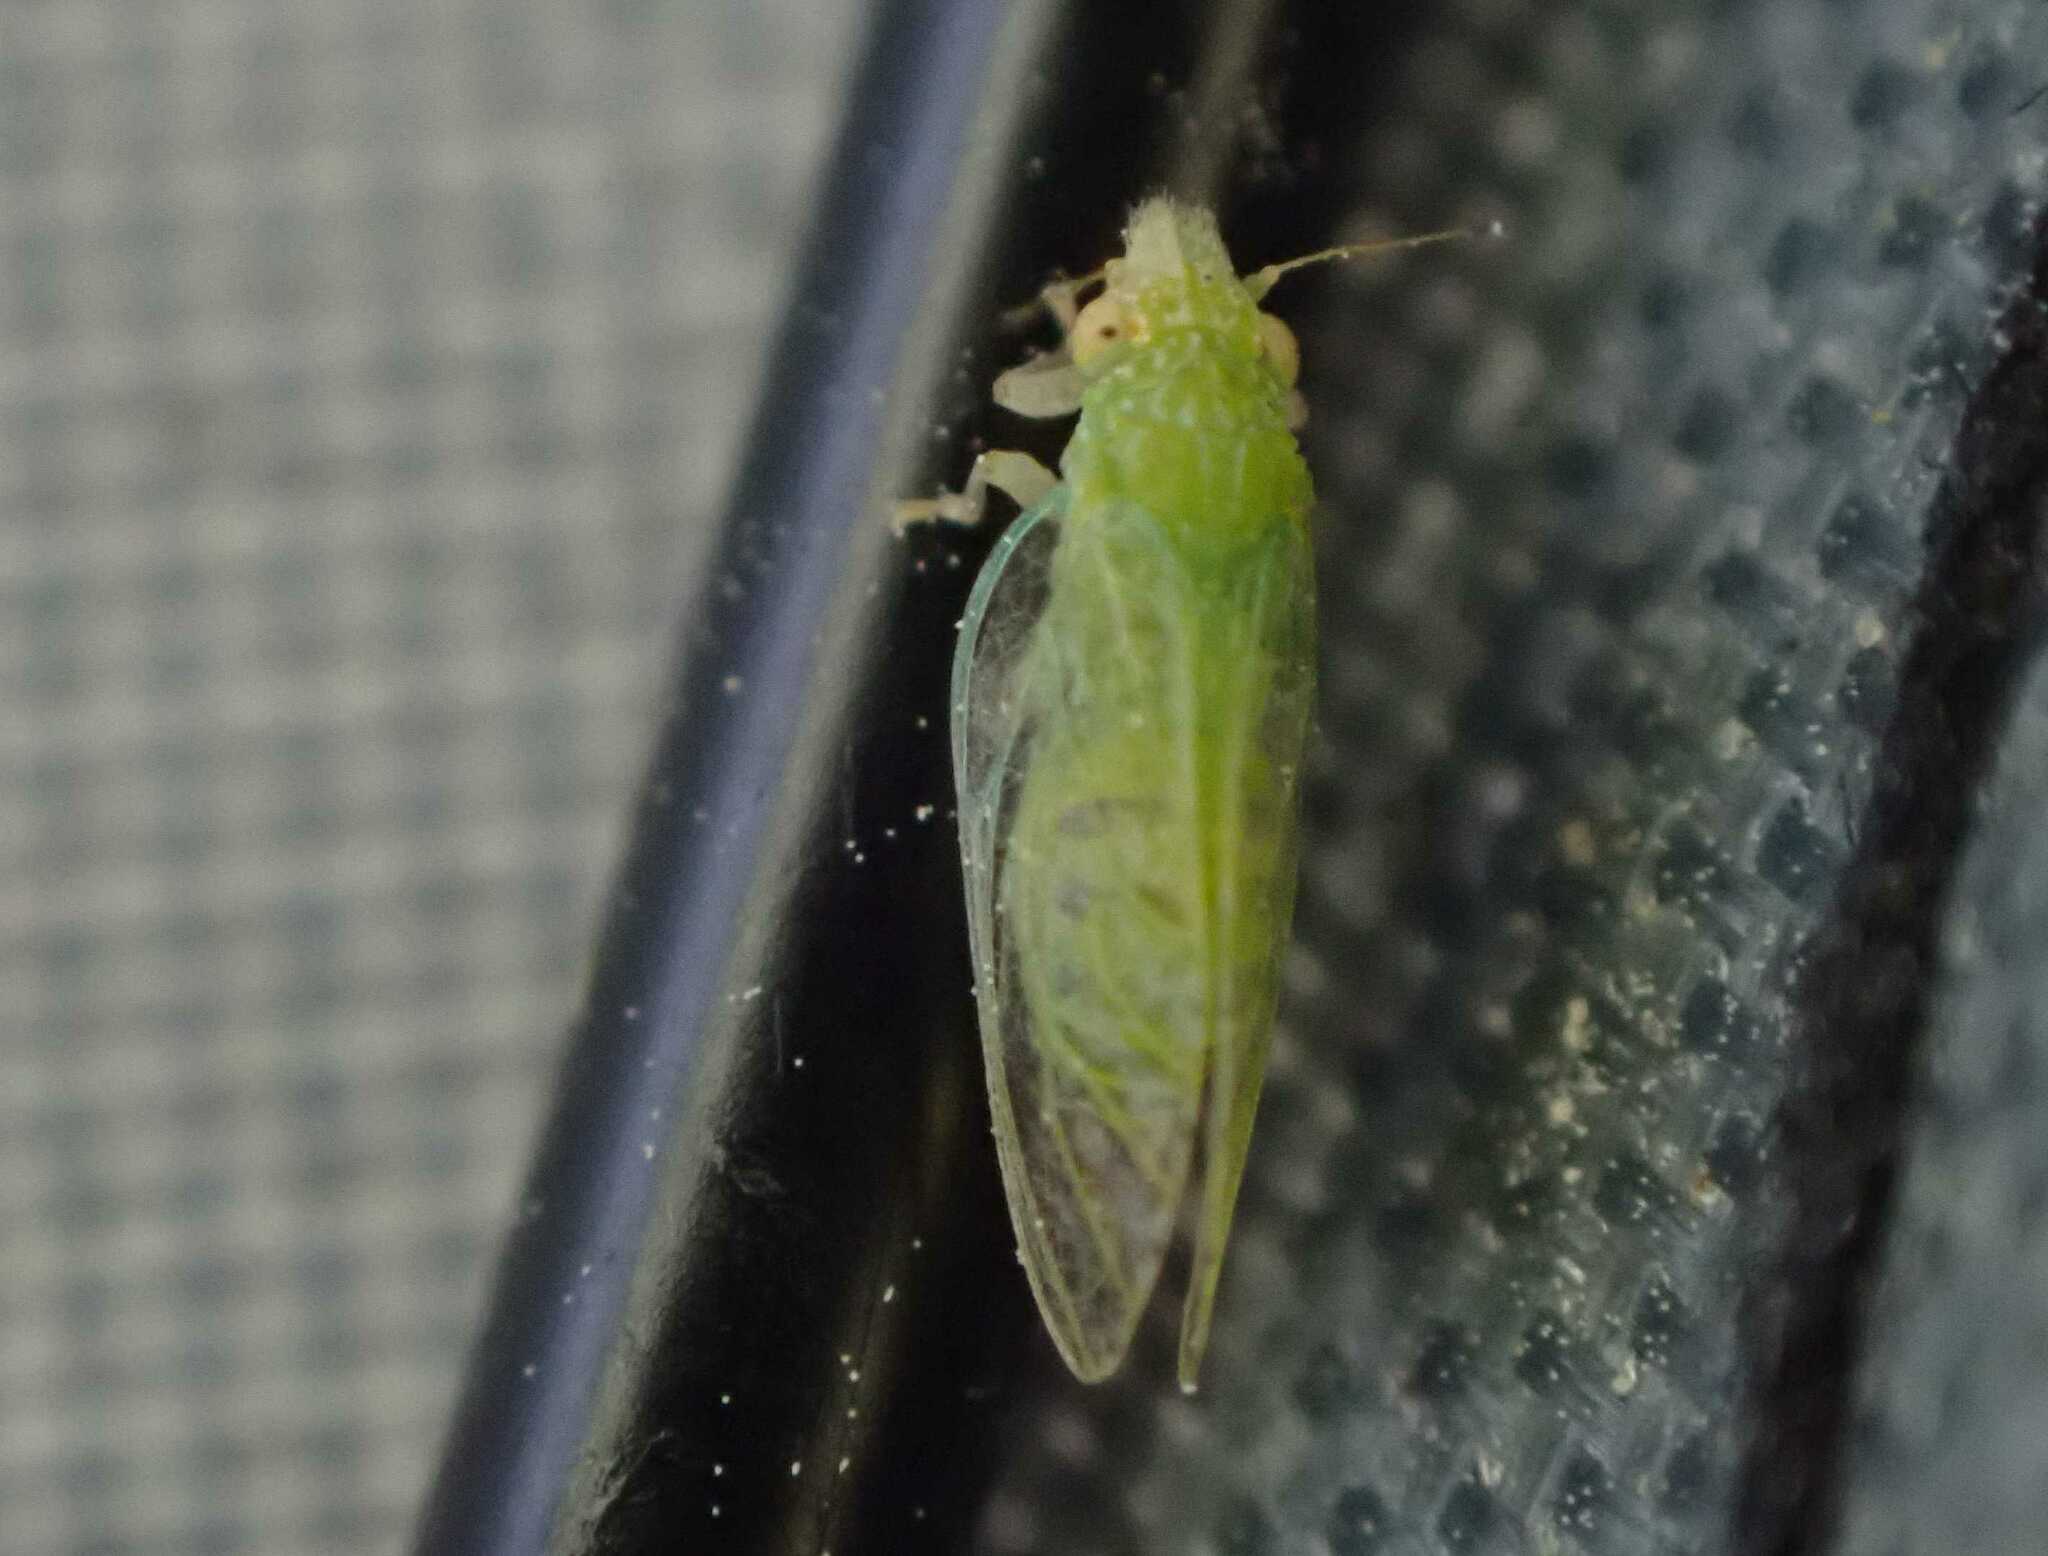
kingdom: Animalia
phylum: Arthropoda
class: Insecta
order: Hemiptera
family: Psyllidae
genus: Spanioneura
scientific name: Spanioneura fonscolombii
